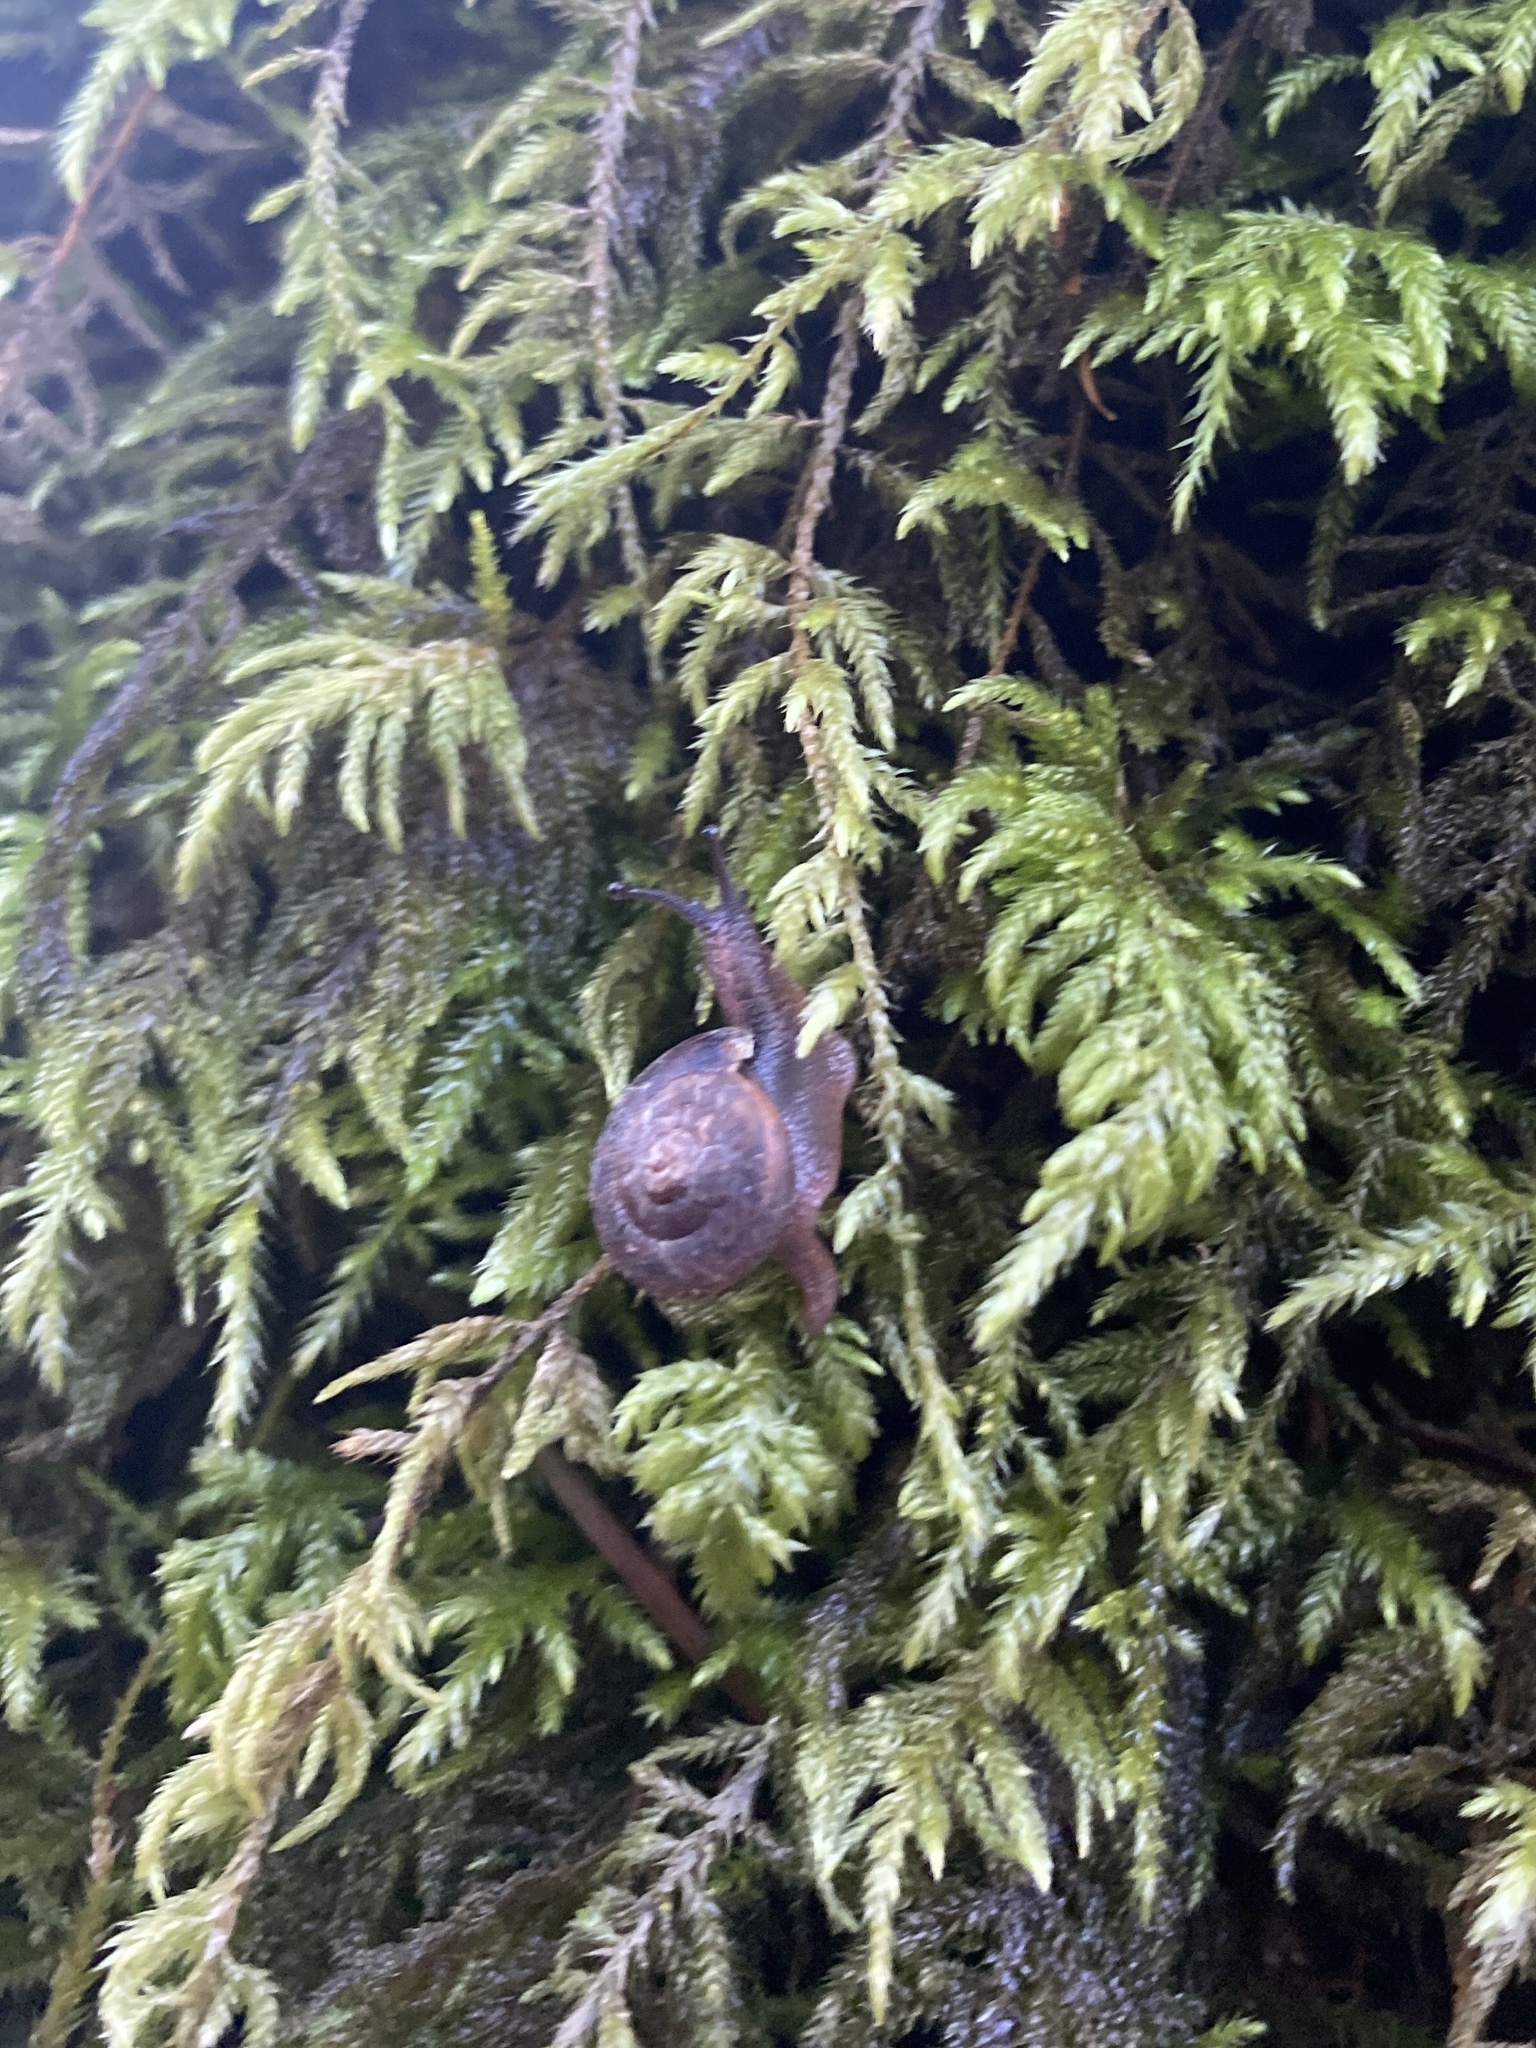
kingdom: Animalia
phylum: Mollusca
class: Gastropoda
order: Stylommatophora
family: Polygyridae
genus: Vespericola
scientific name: Vespericola columbianus
